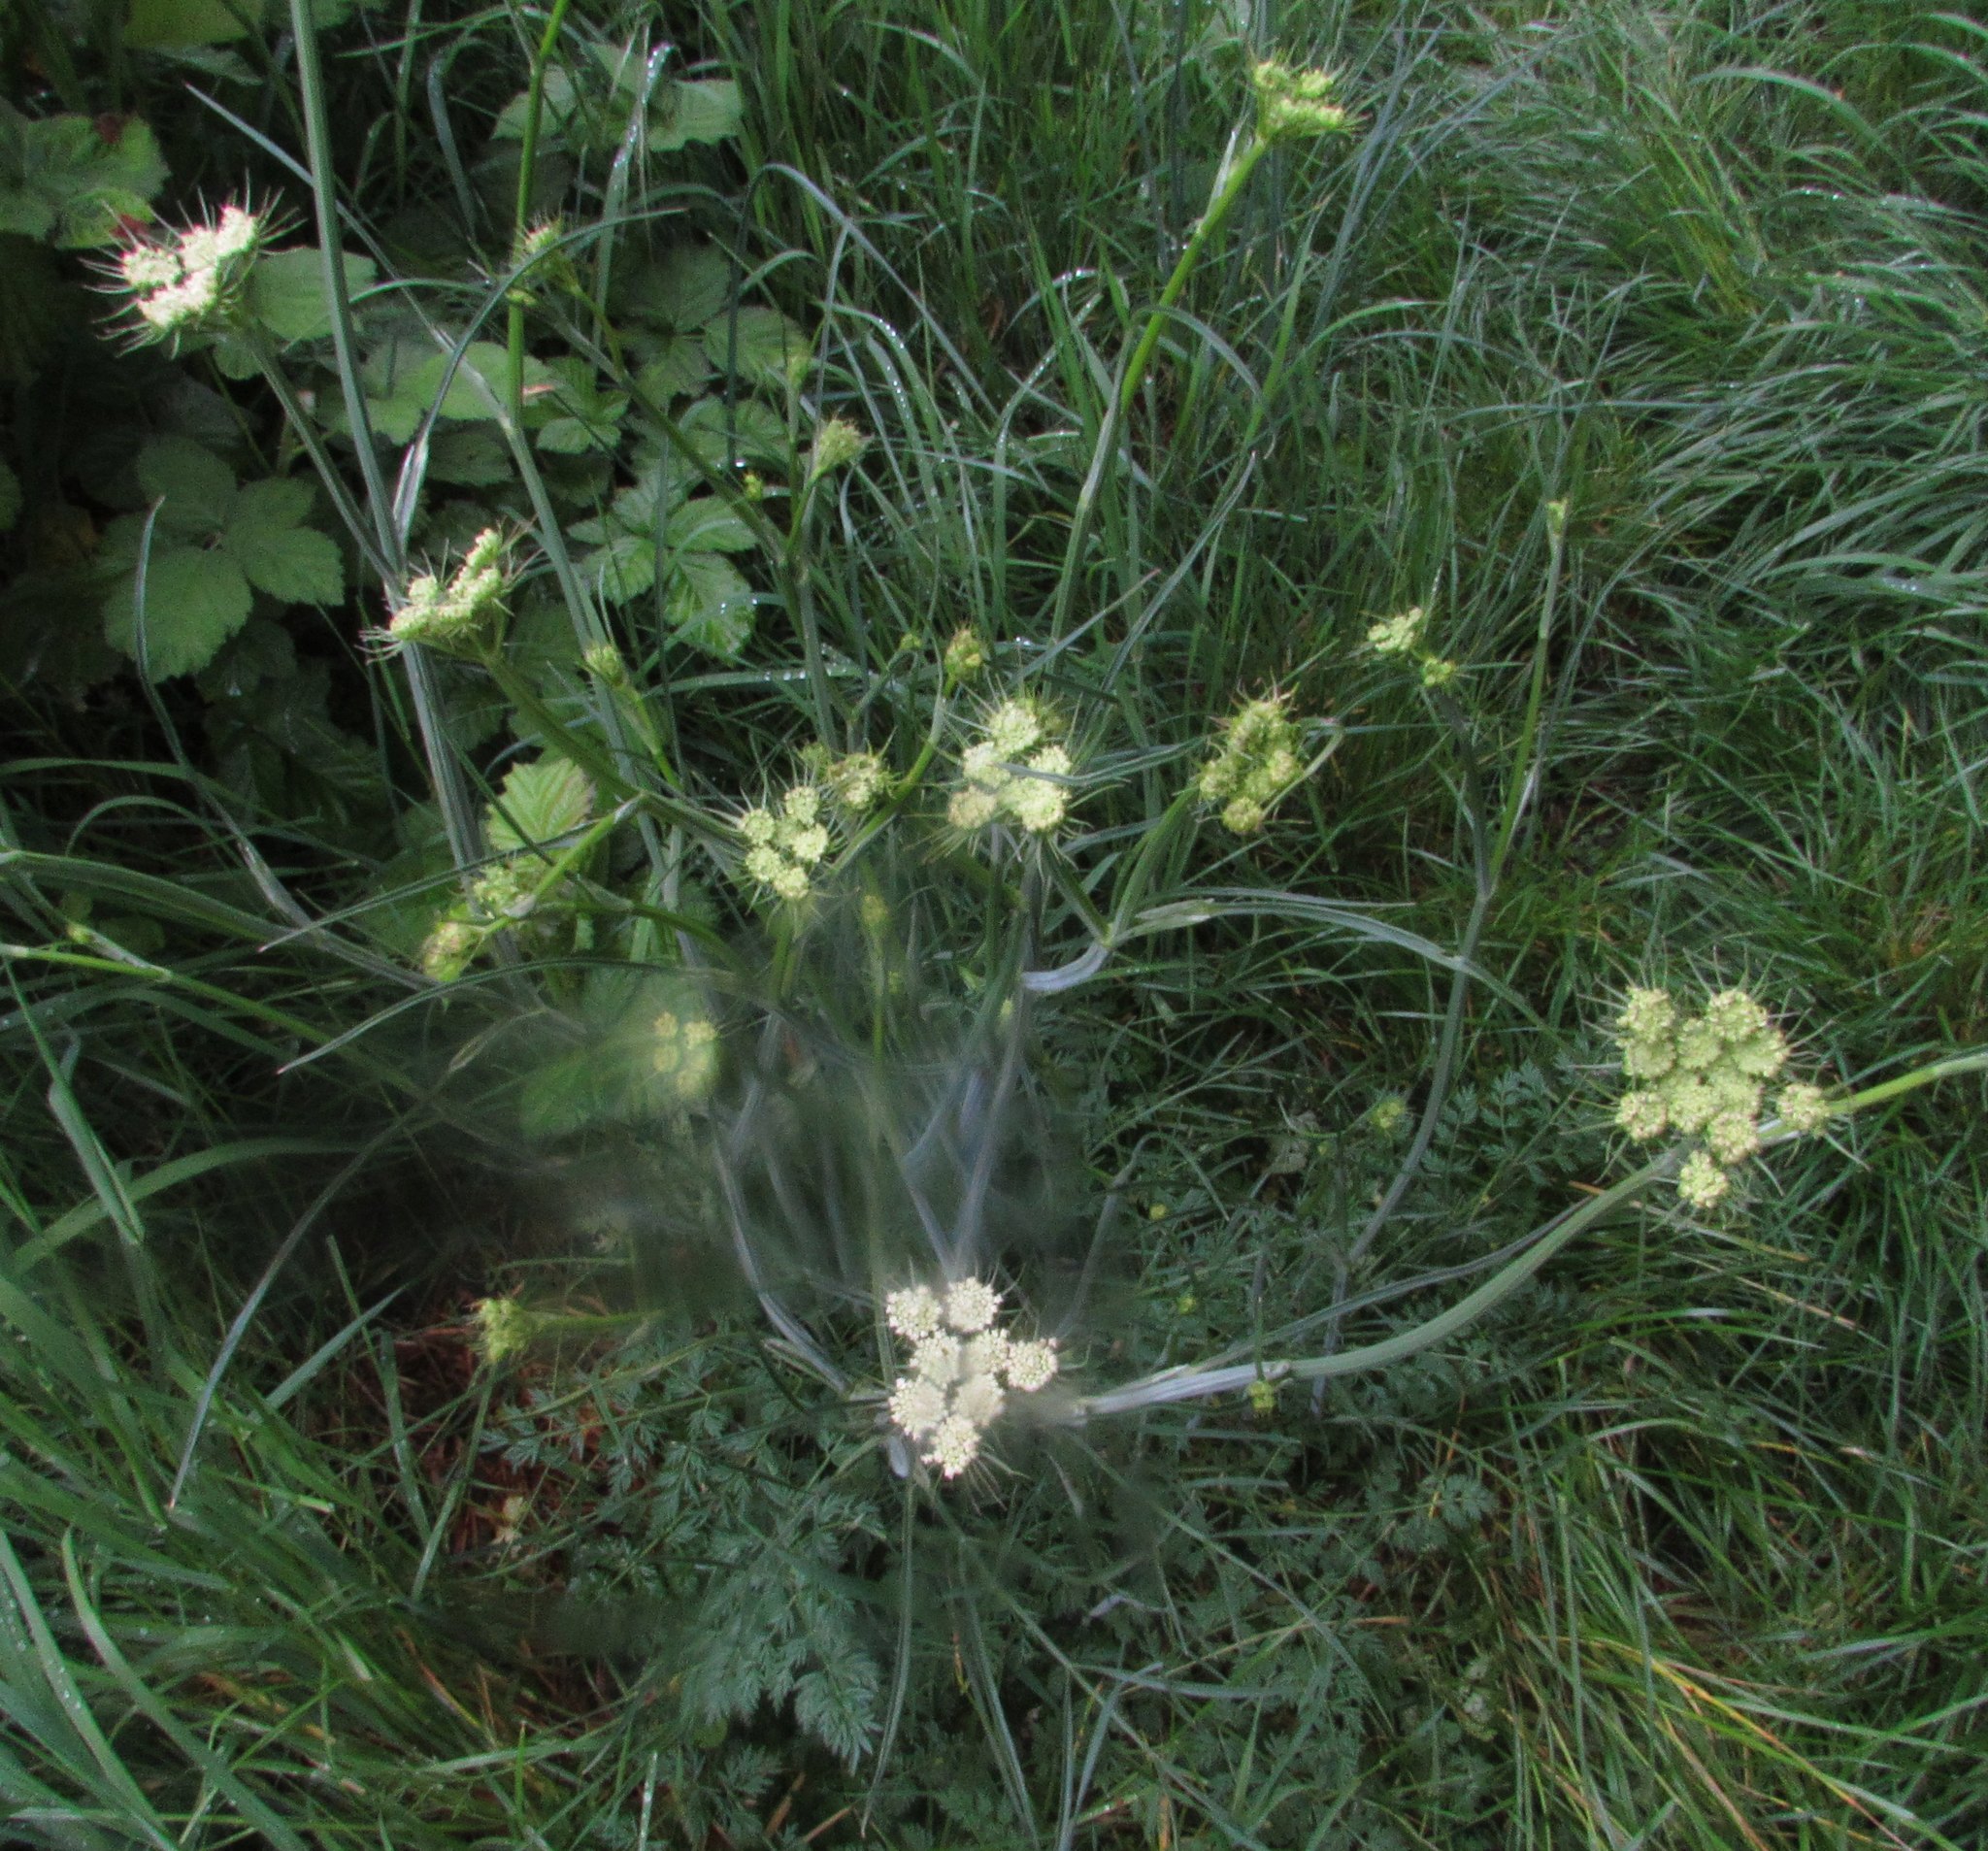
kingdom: Plantae
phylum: Tracheophyta
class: Magnoliopsida
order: Apiales
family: Apiaceae
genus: Oenanthe
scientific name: Oenanthe pimpinelloides
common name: Corky-fruited water-dropwort
